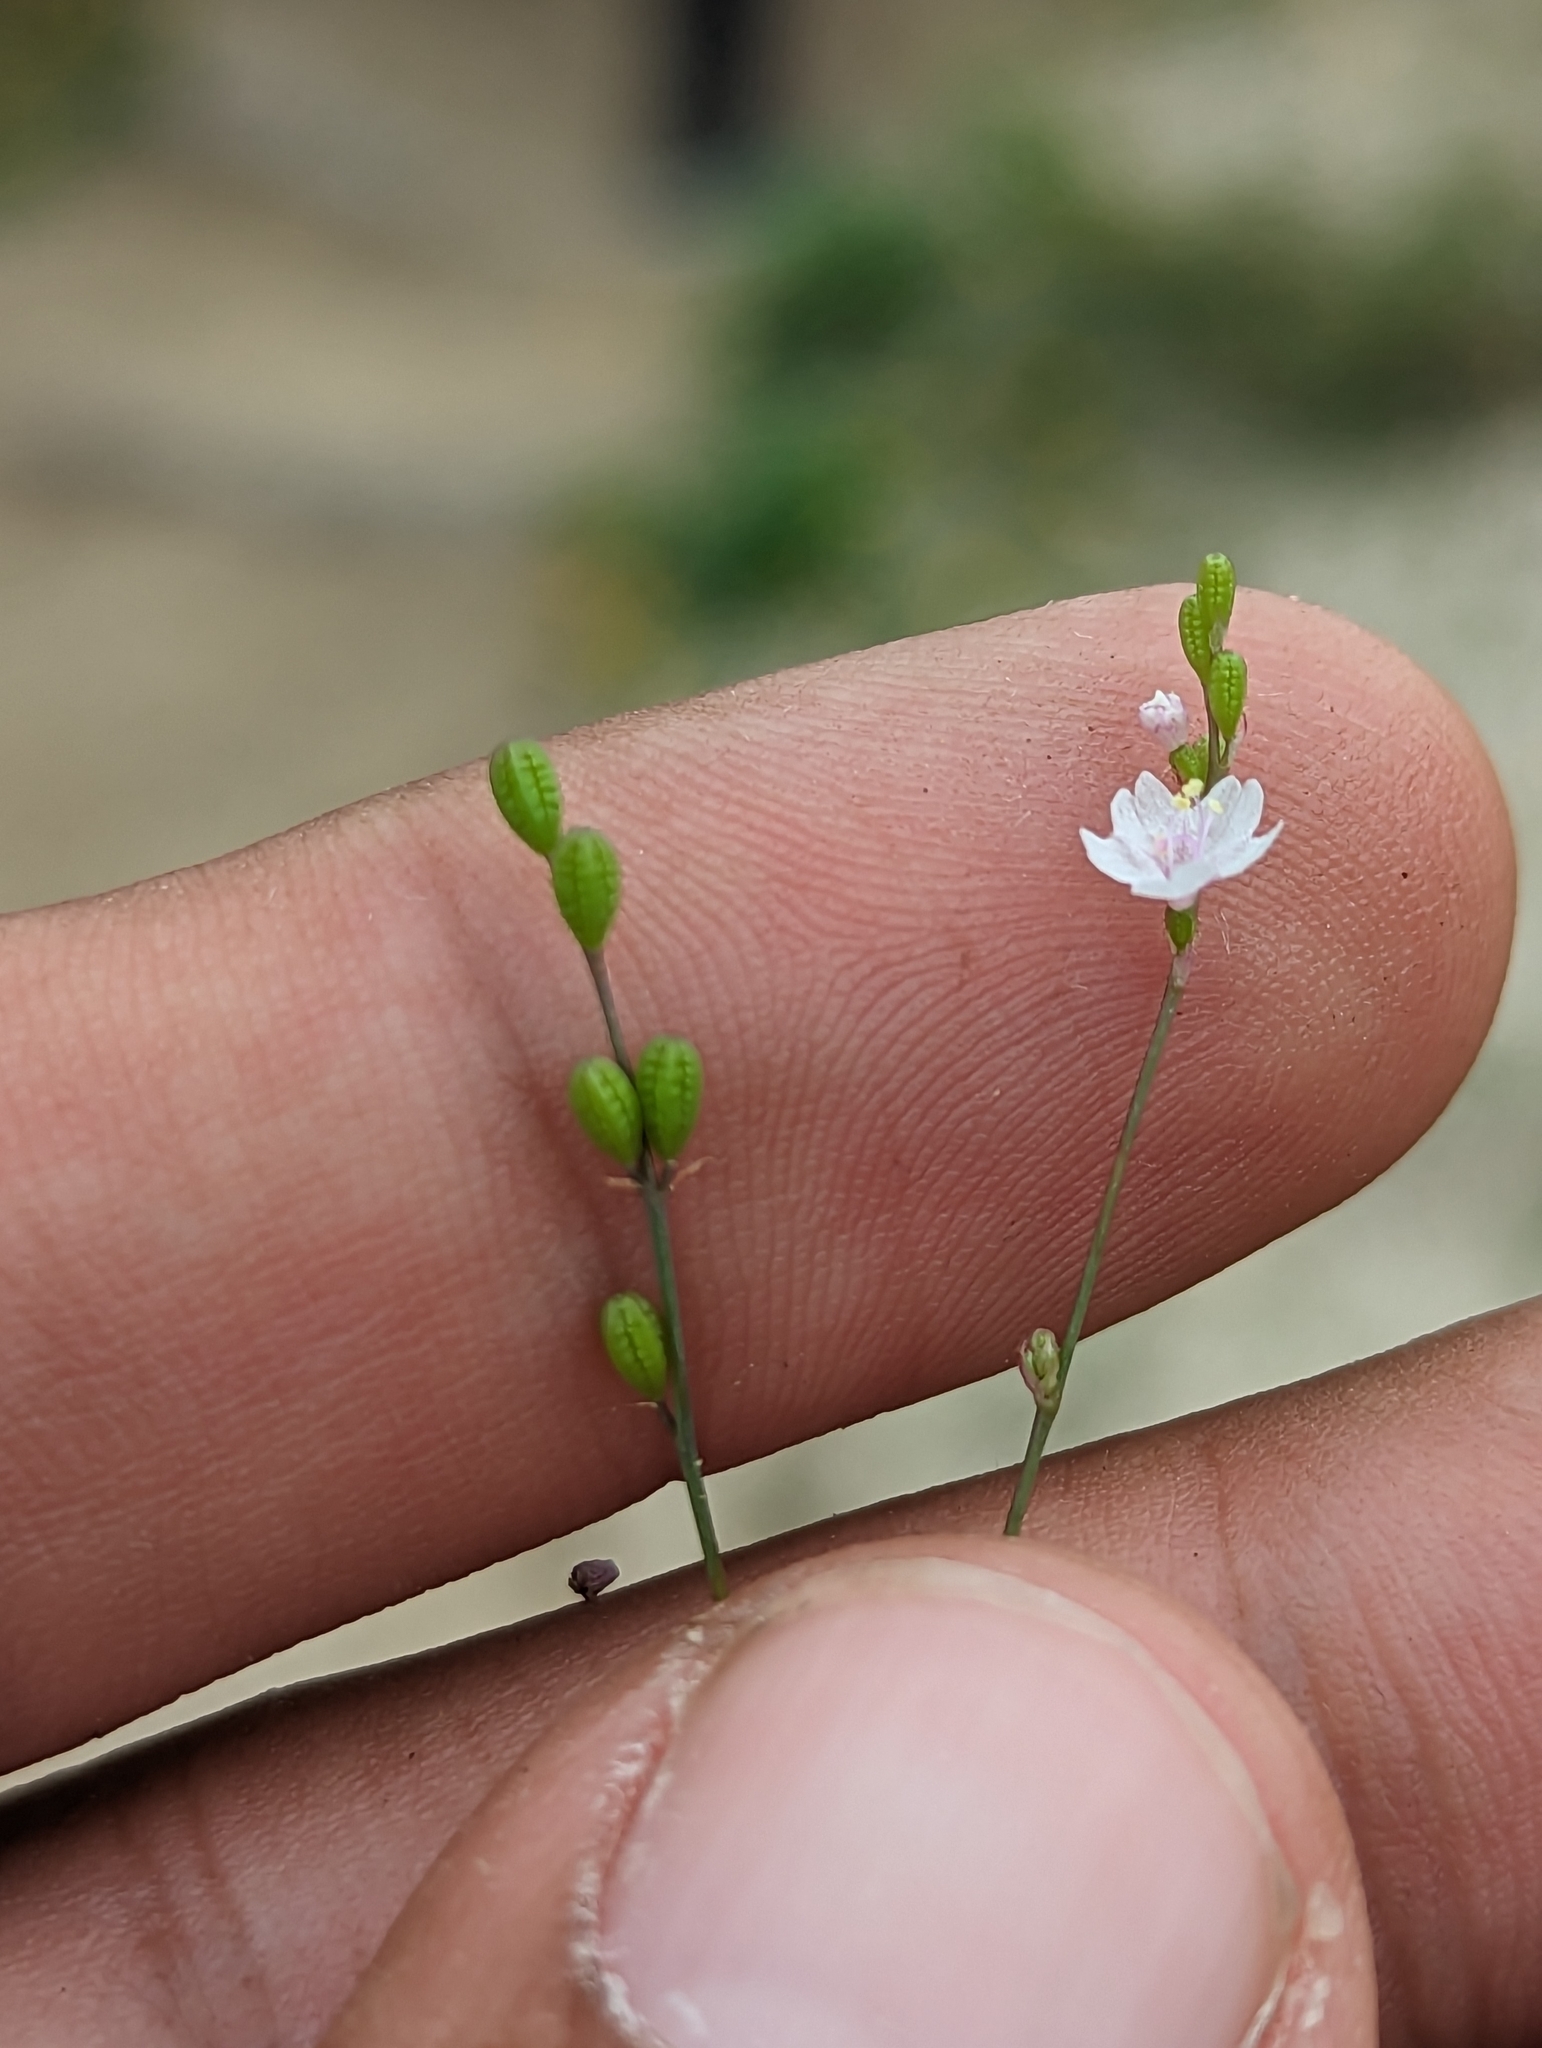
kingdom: Plantae
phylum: Tracheophyta
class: Magnoliopsida
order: Caryophyllales
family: Nyctaginaceae
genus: Boerhavia
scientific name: Boerhavia xantii
